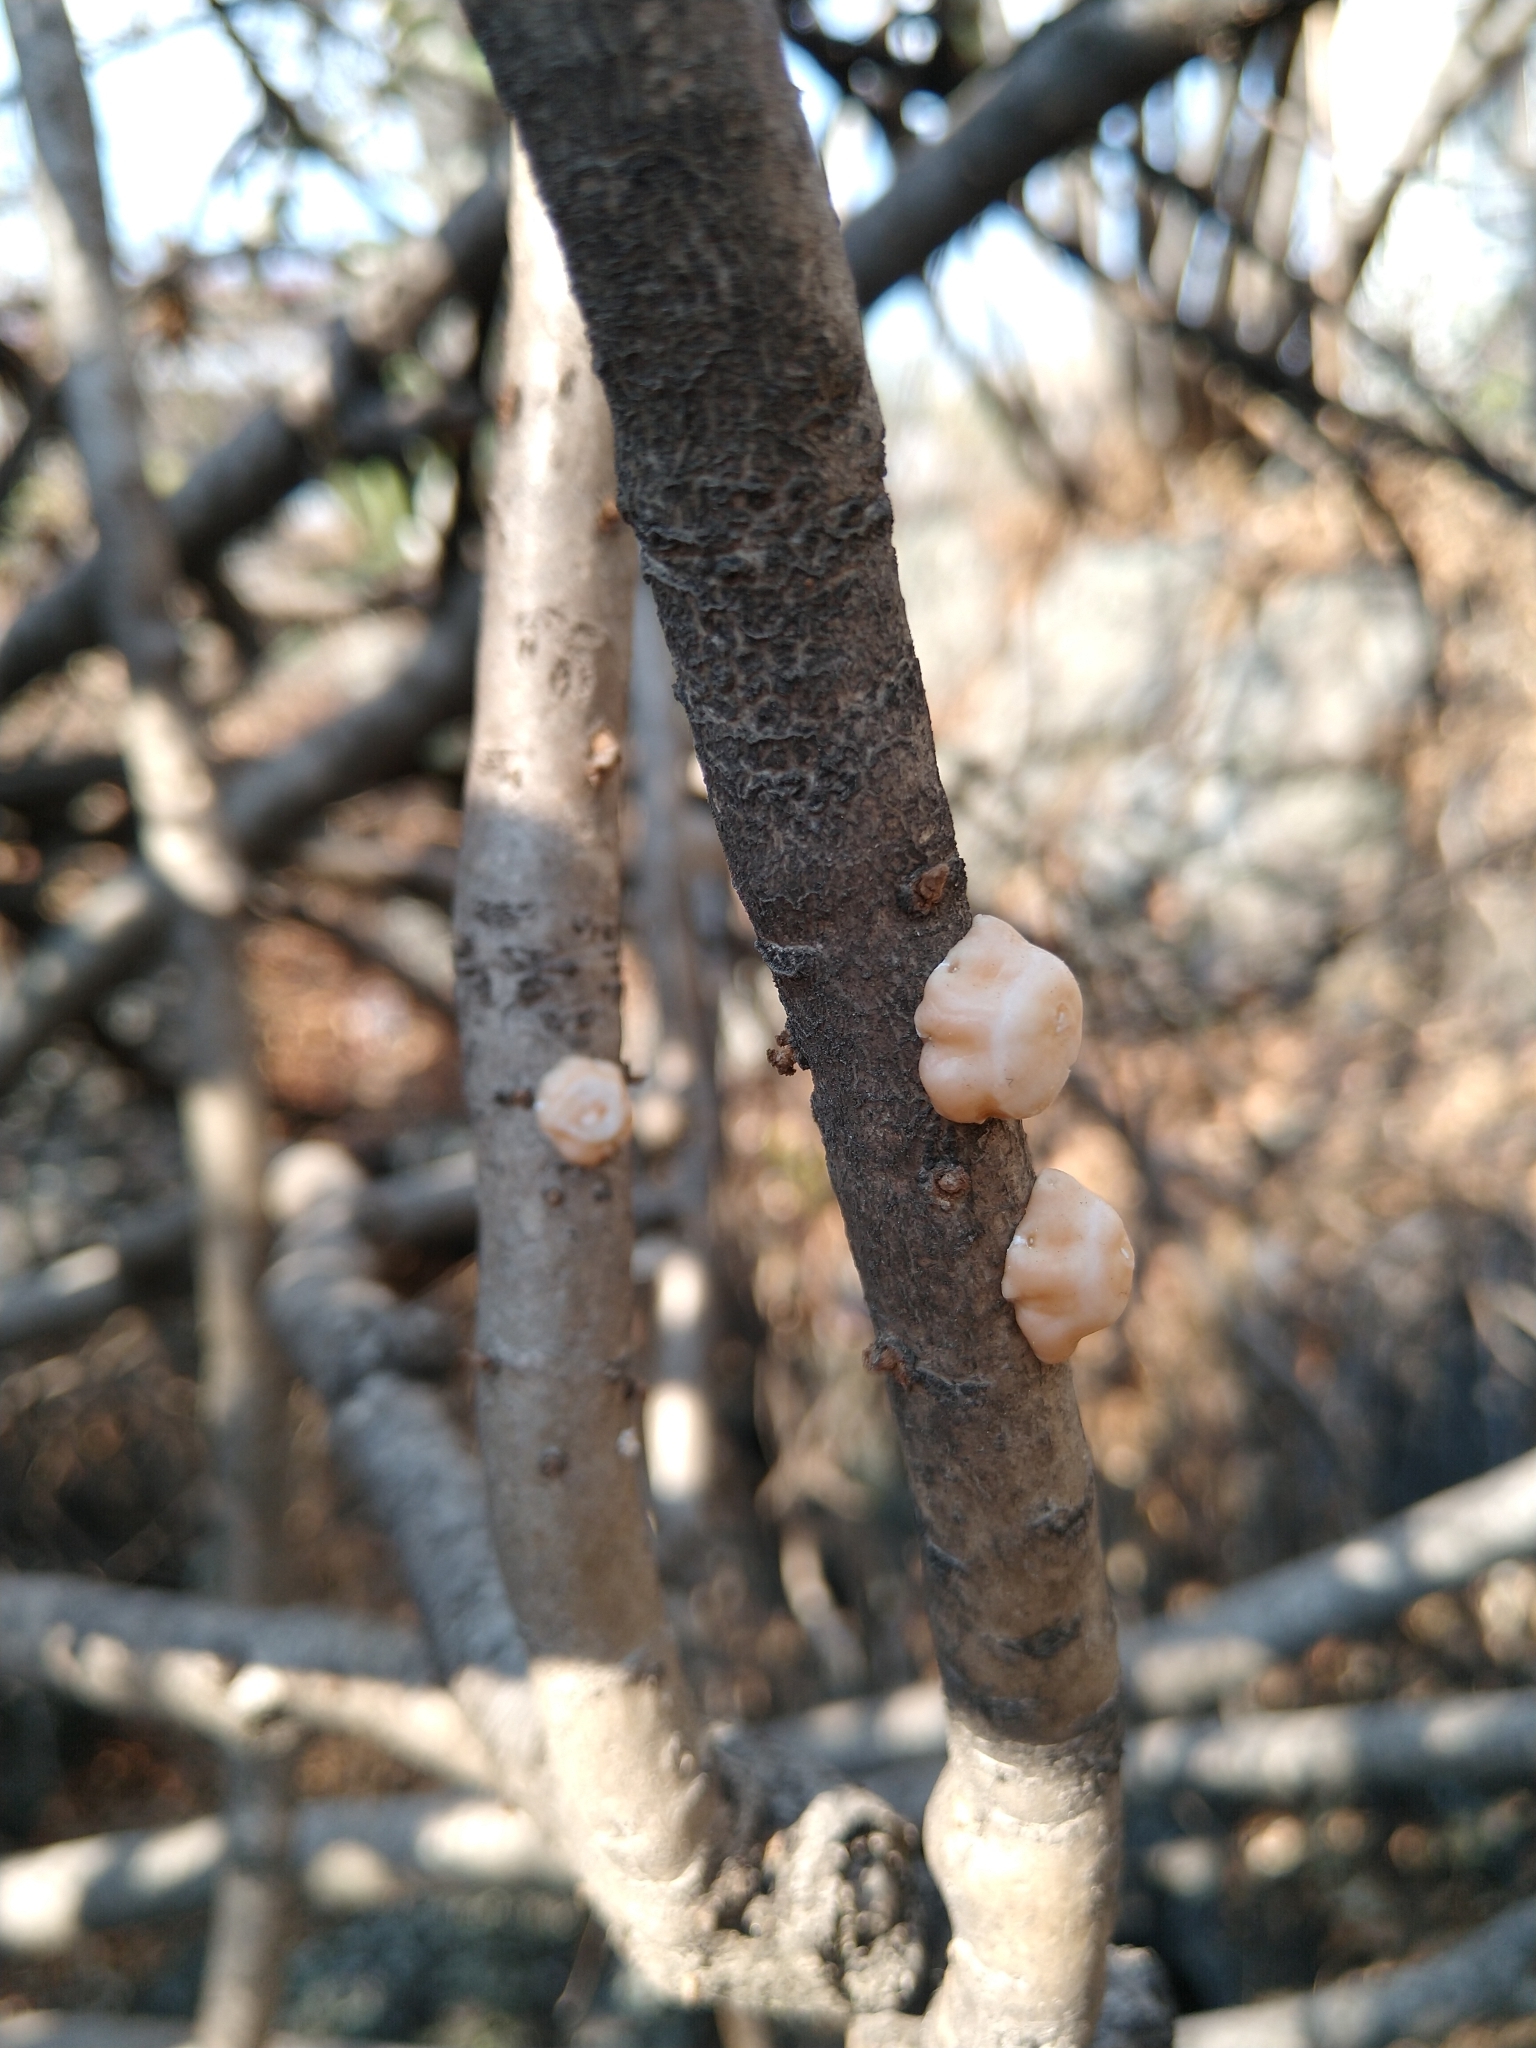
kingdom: Animalia
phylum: Arthropoda
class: Insecta
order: Hemiptera
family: Coccidae
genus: Ceroplastes
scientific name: Ceroplastes albolineatus
